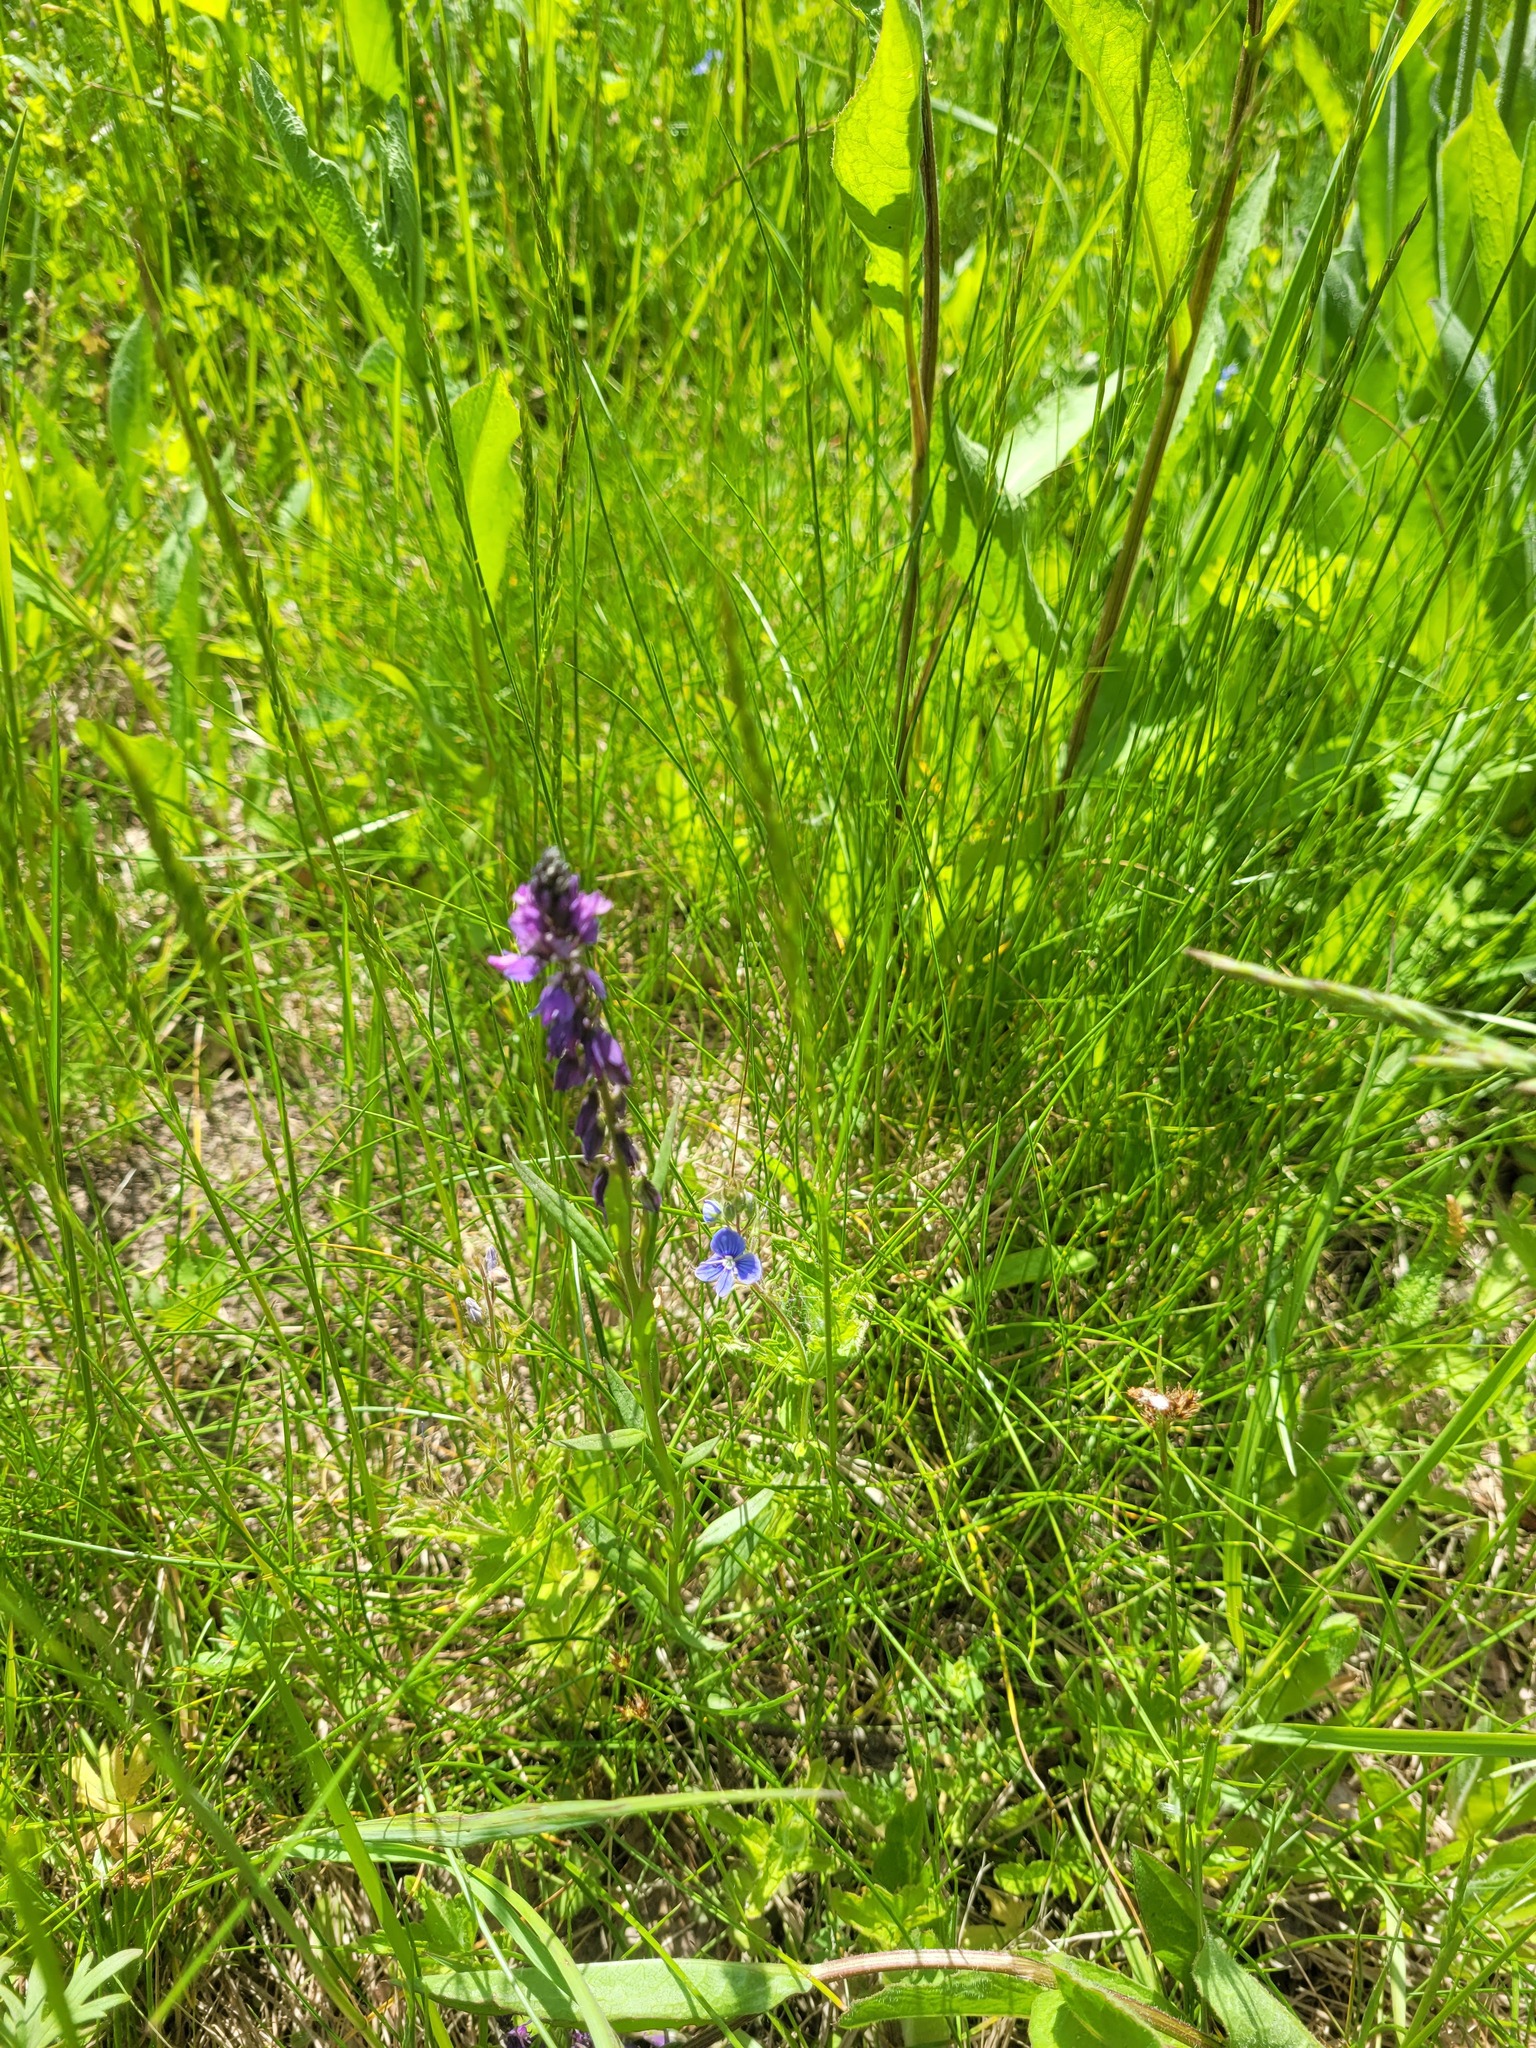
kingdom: Plantae
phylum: Tracheophyta
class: Magnoliopsida
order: Fabales
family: Polygalaceae
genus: Polygala
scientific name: Polygala comosa
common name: Tufted milkwort
